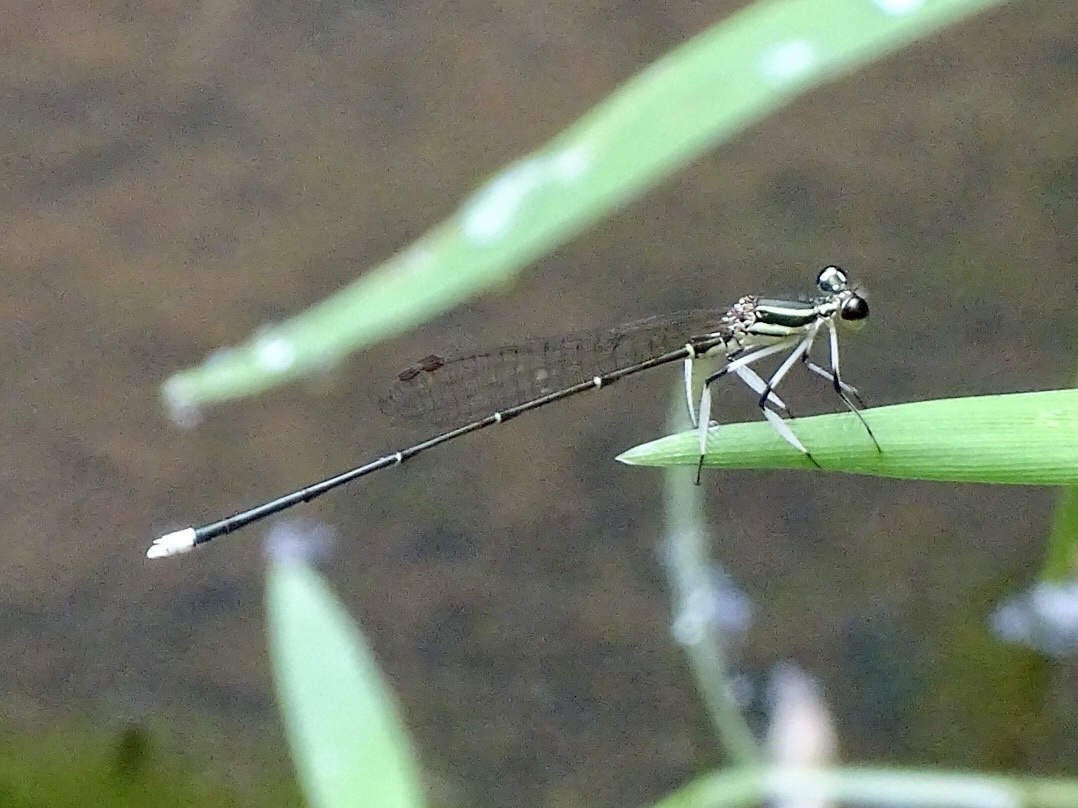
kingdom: Animalia
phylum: Arthropoda
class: Insecta
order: Odonata
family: Platycnemididae
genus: Pseudocopera
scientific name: Pseudocopera ciliata
